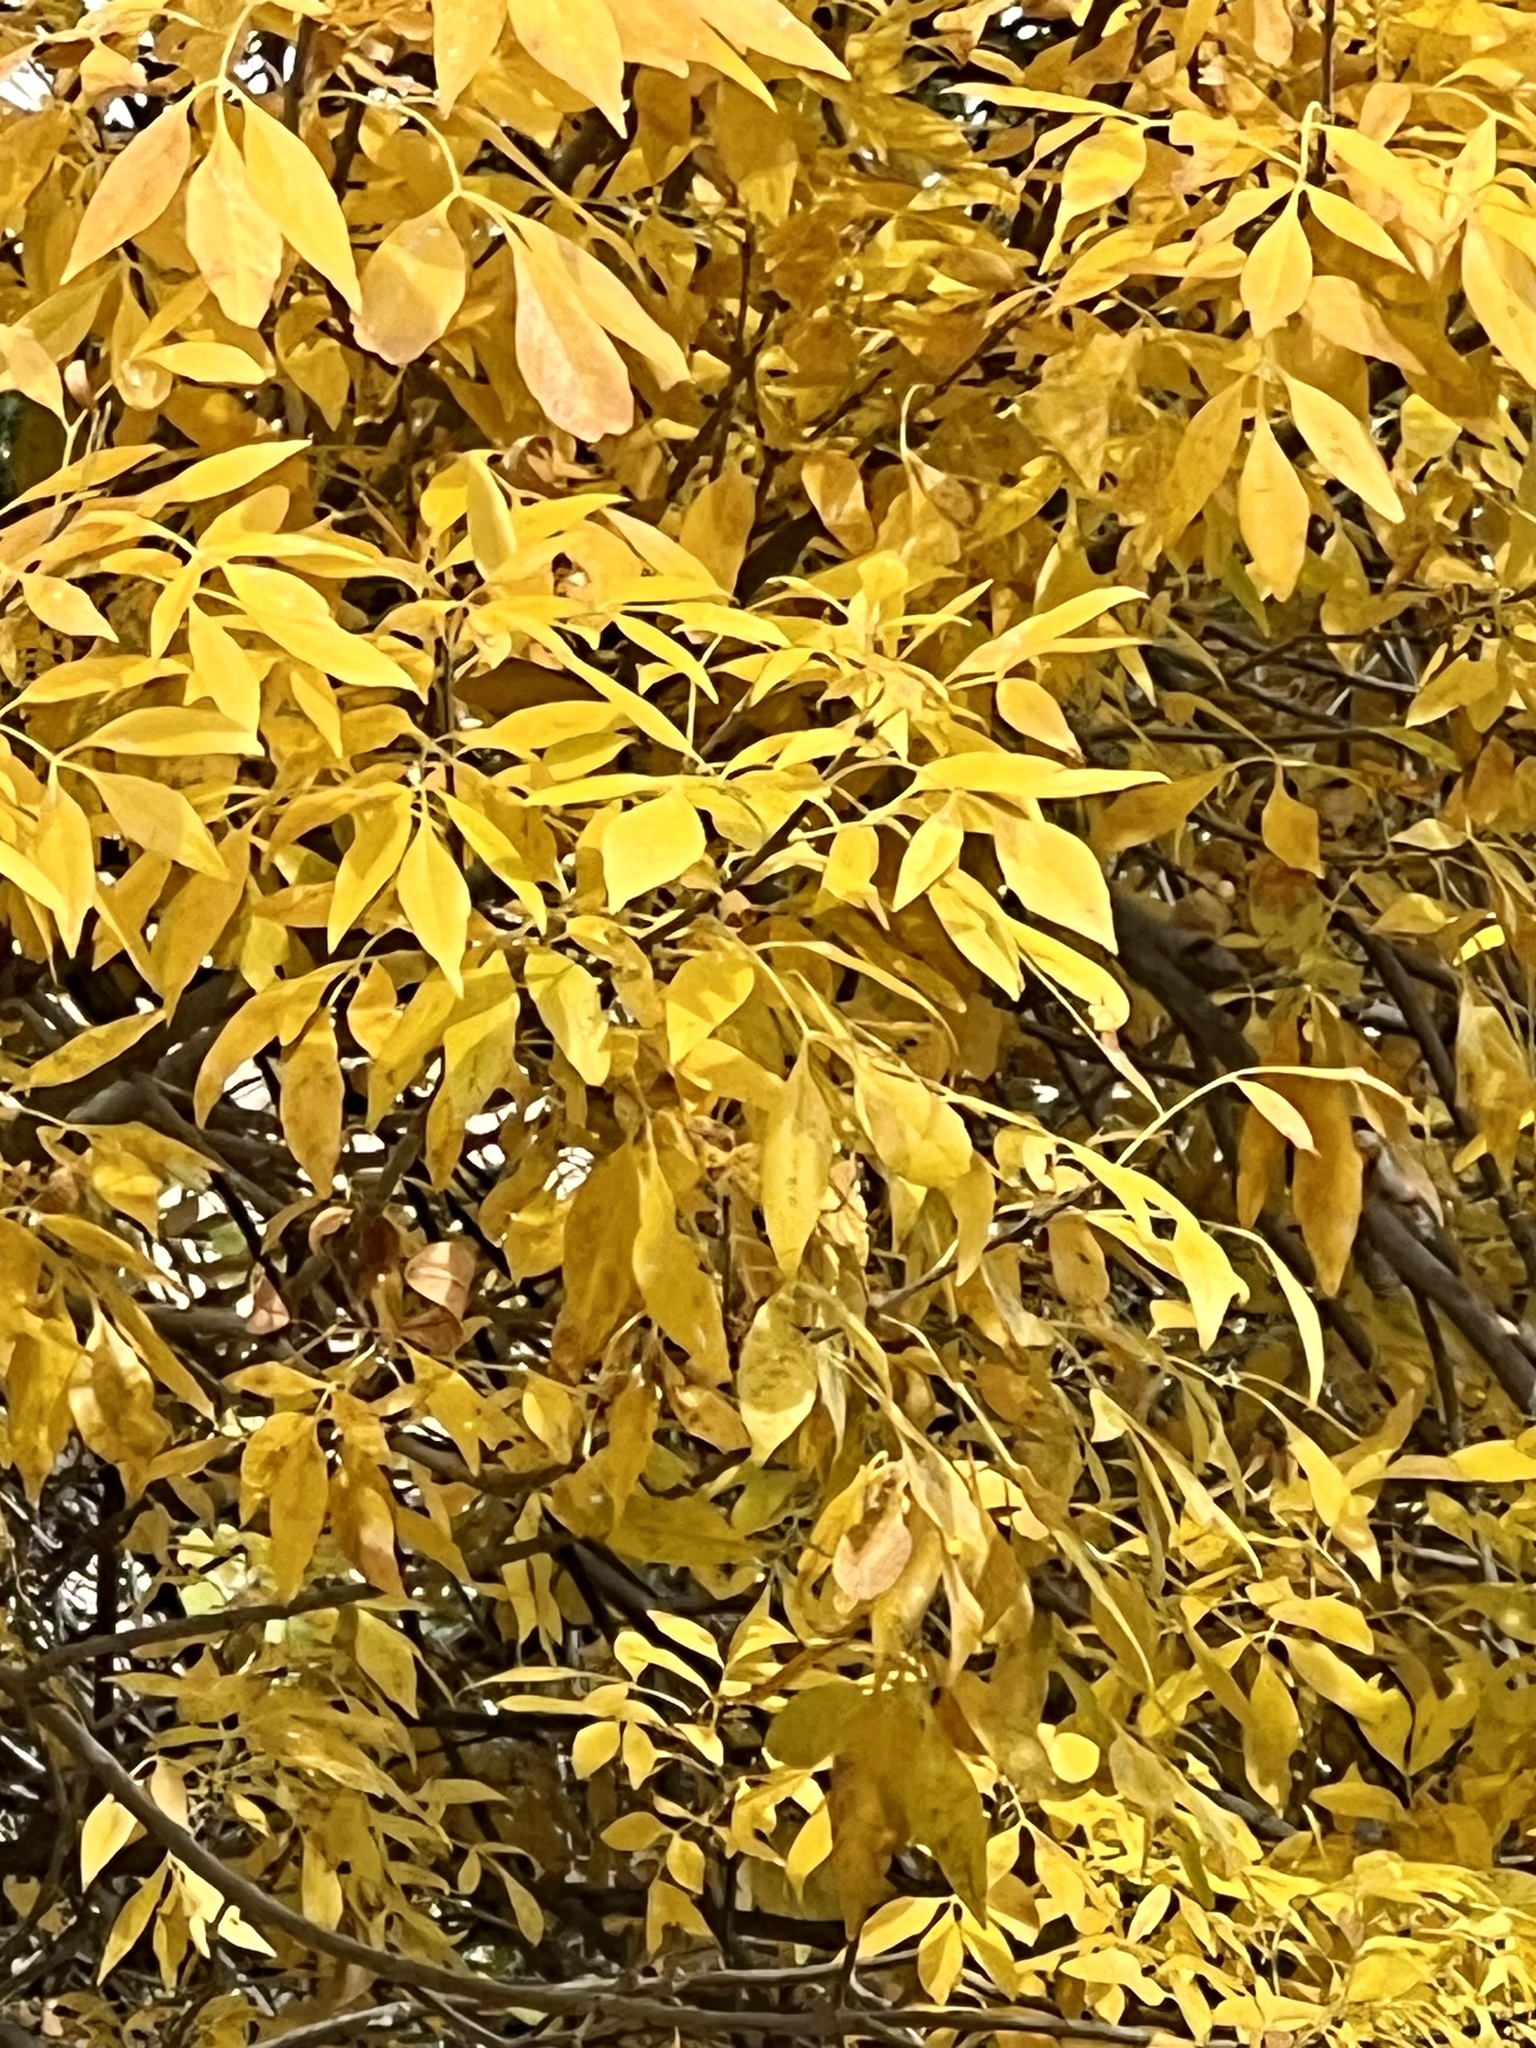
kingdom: Plantae
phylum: Tracheophyta
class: Magnoliopsida
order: Lamiales
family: Oleaceae
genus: Fraxinus
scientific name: Fraxinus velutina
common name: Arizon ash
